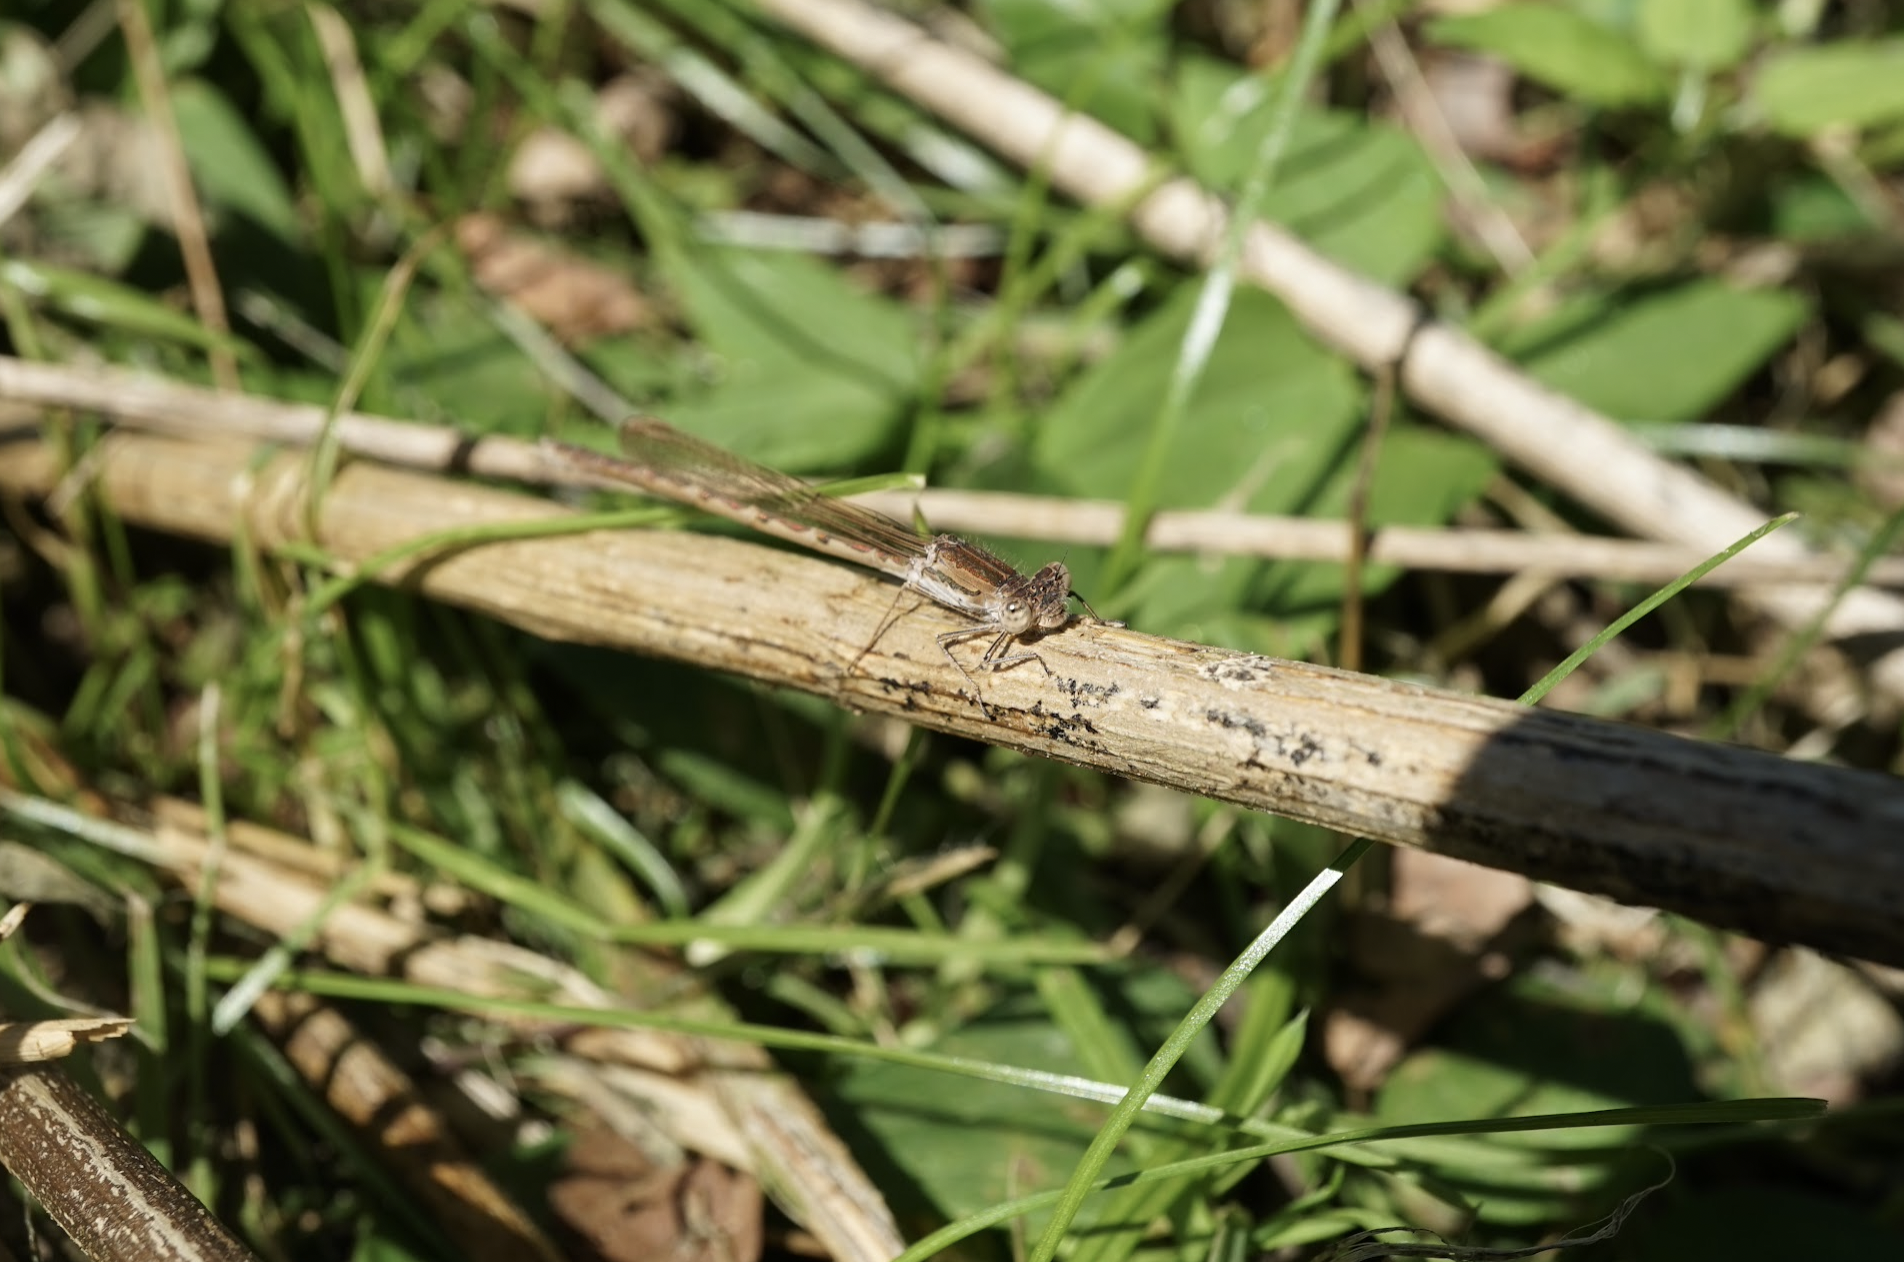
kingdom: Animalia
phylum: Arthropoda
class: Insecta
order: Odonata
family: Lestidae
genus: Sympecma
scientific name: Sympecma paedisca
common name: Siberian winter damsel
